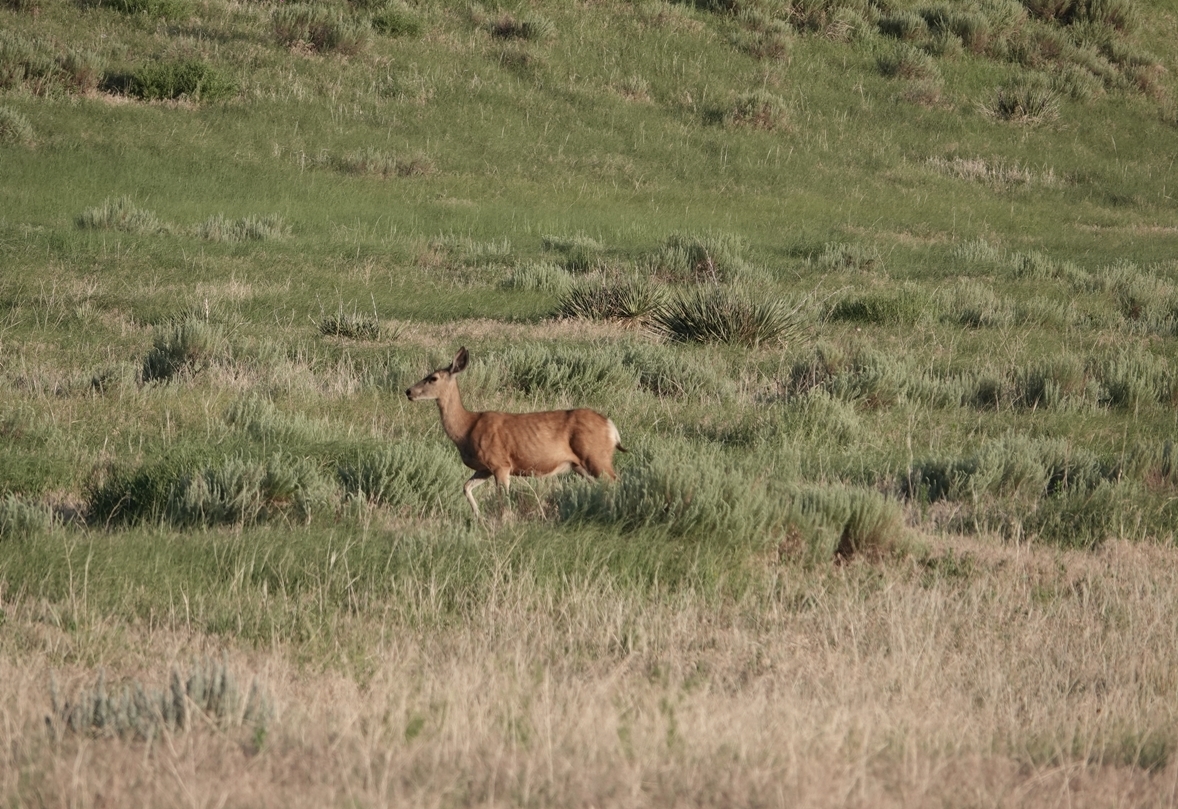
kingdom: Animalia
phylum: Chordata
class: Mammalia
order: Artiodactyla
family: Cervidae
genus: Odocoileus
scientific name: Odocoileus hemionus
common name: Mule deer
